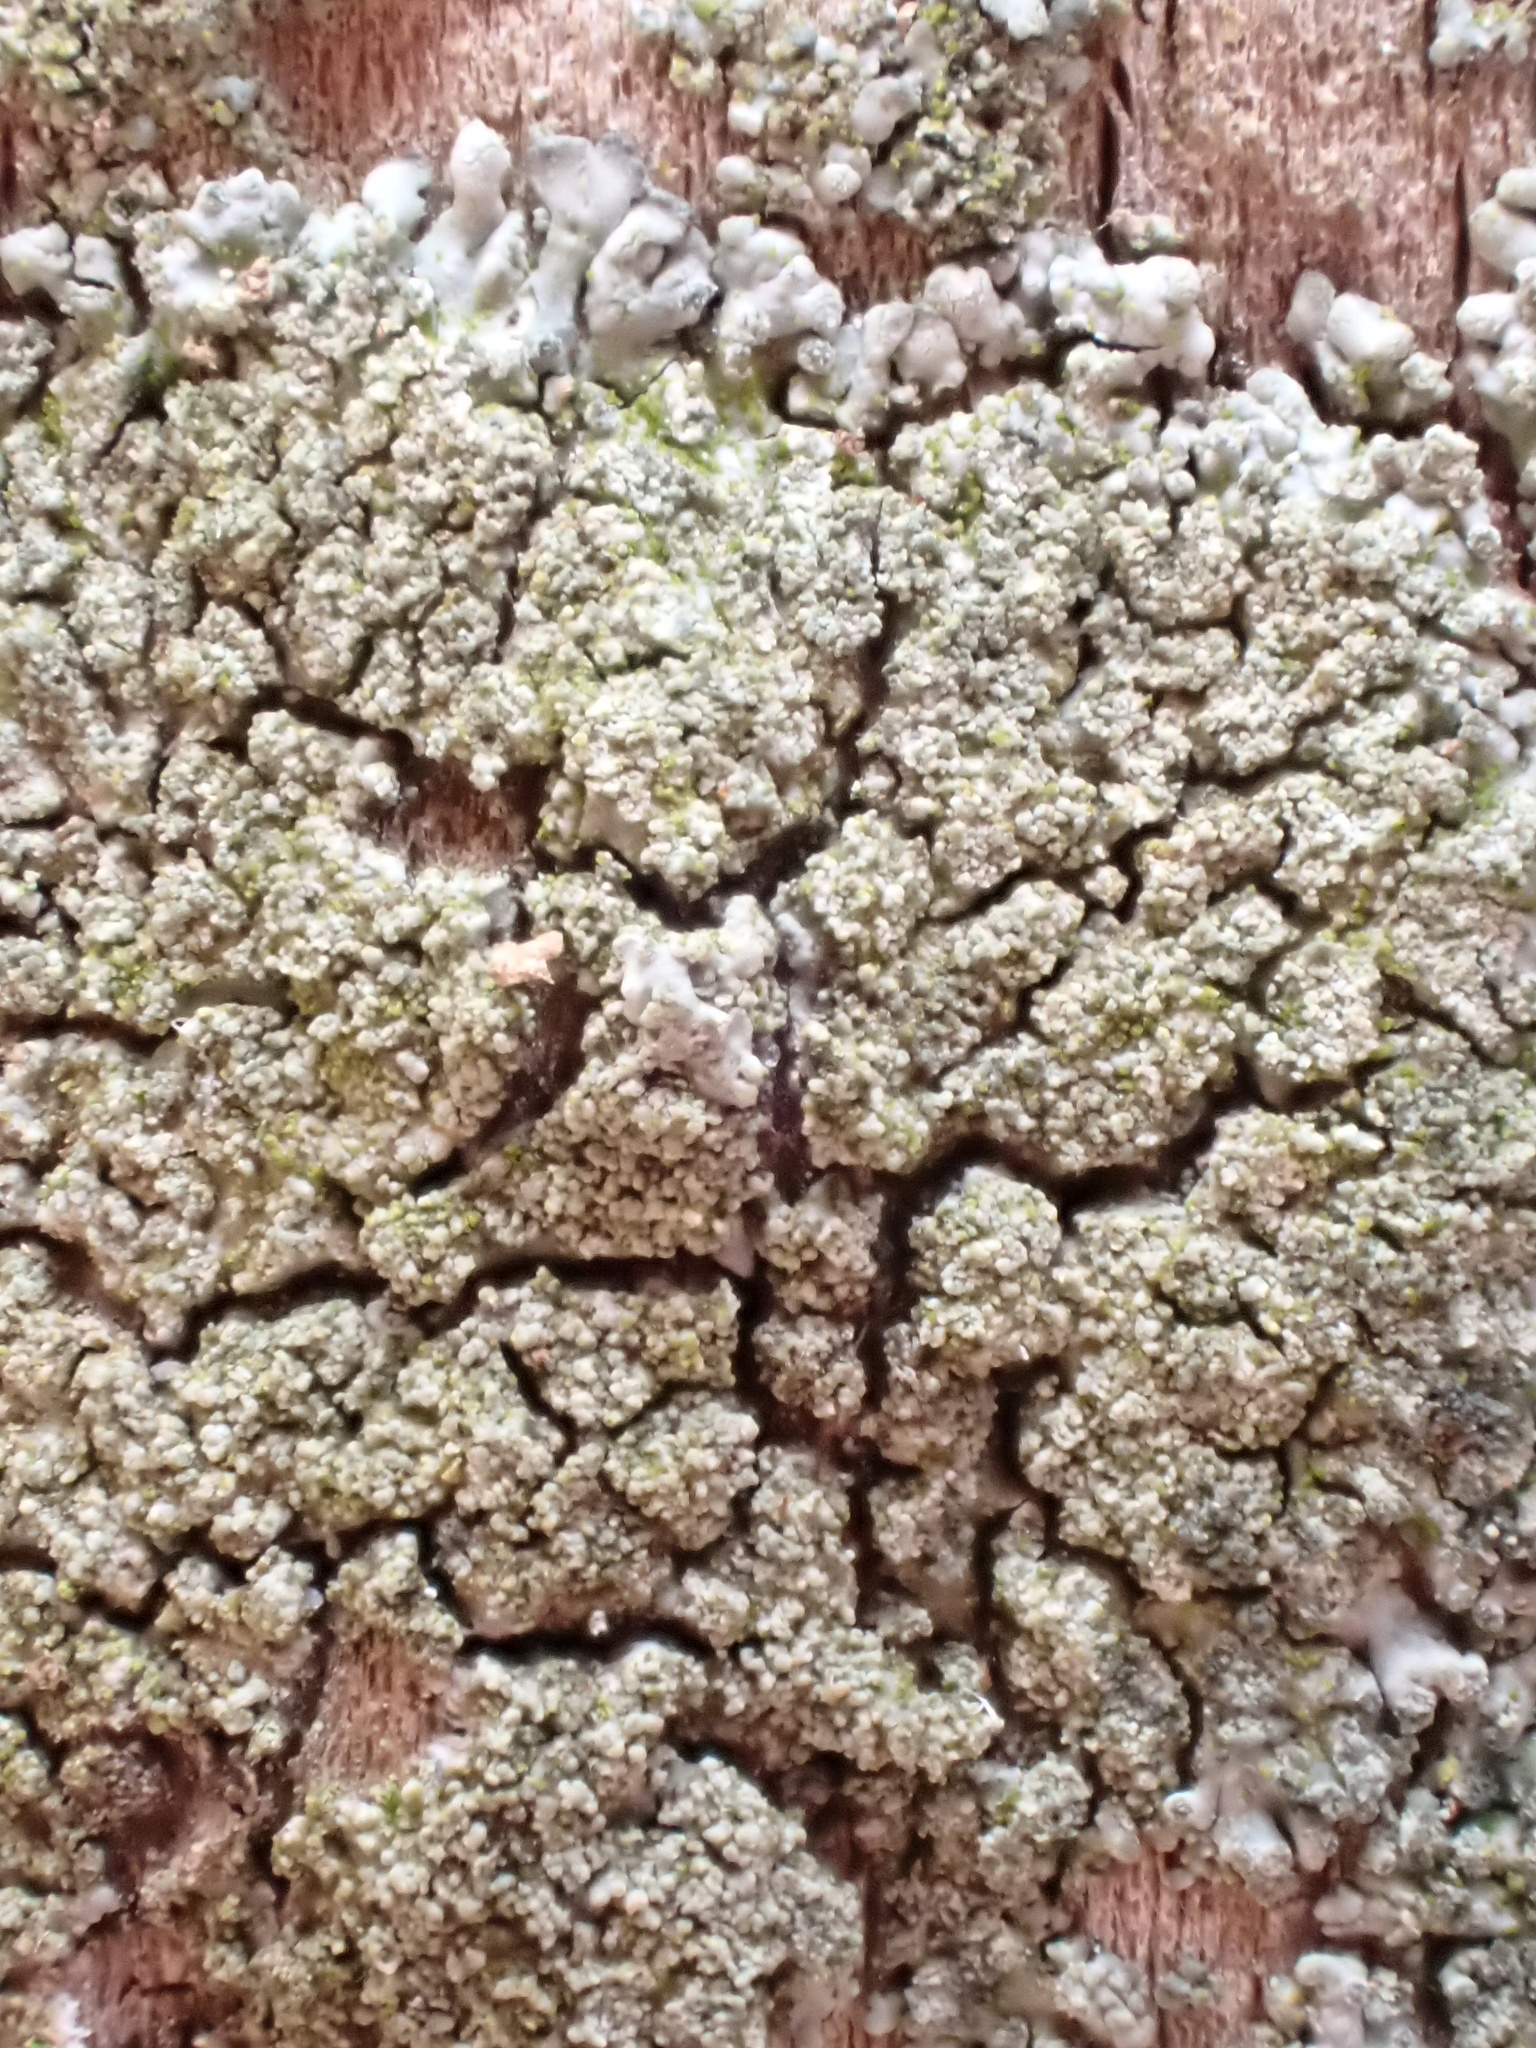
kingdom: Fungi
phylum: Ascomycota
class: Lecanoromycetes
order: Caliciales
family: Physciaceae
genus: Hyperphyscia
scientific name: Hyperphyscia adglutinata
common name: Grainy shadow-crust lichen
